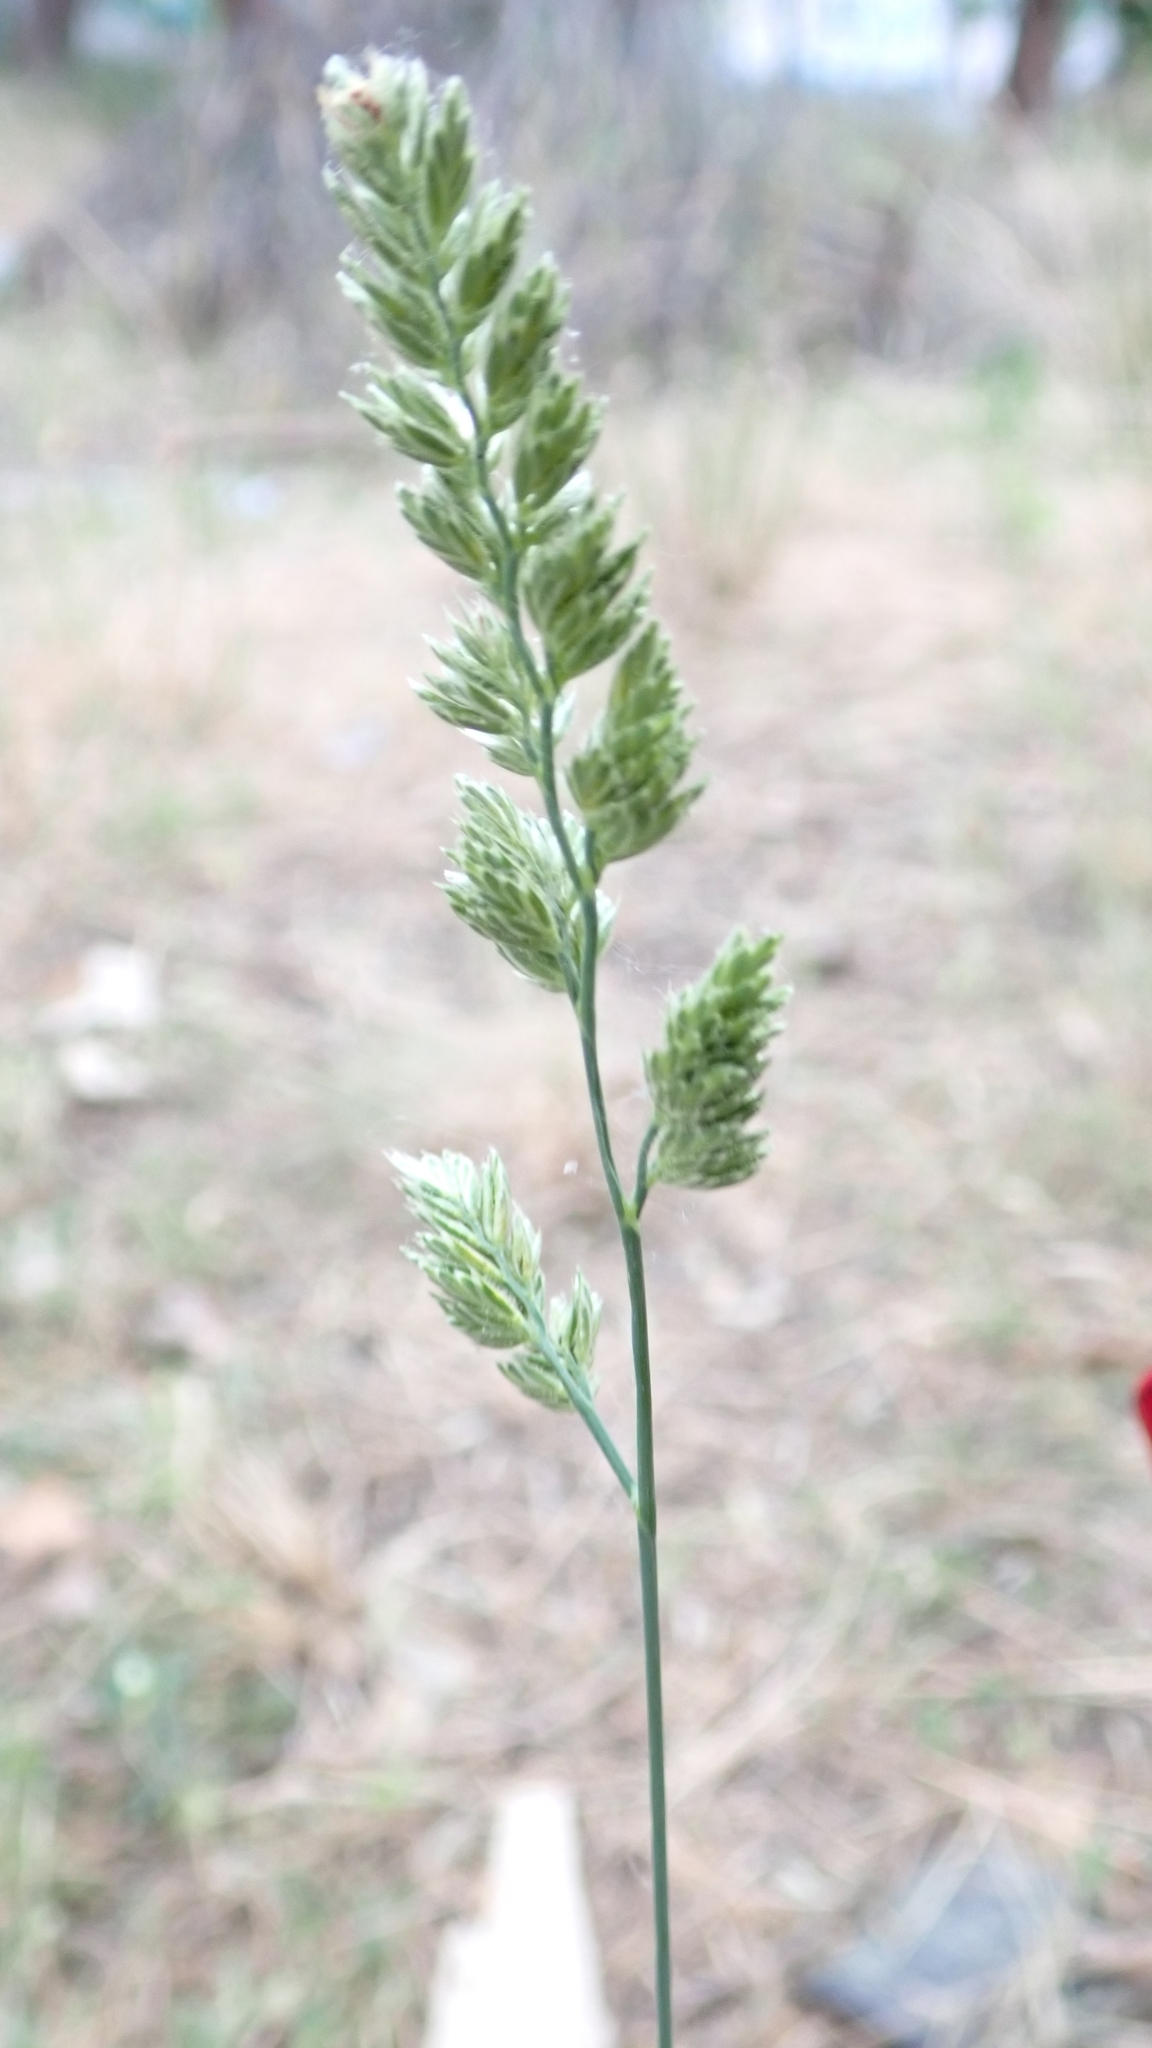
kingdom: Plantae
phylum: Tracheophyta
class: Liliopsida
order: Poales
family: Poaceae
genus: Dactylis
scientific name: Dactylis glomerata
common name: Orchardgrass
